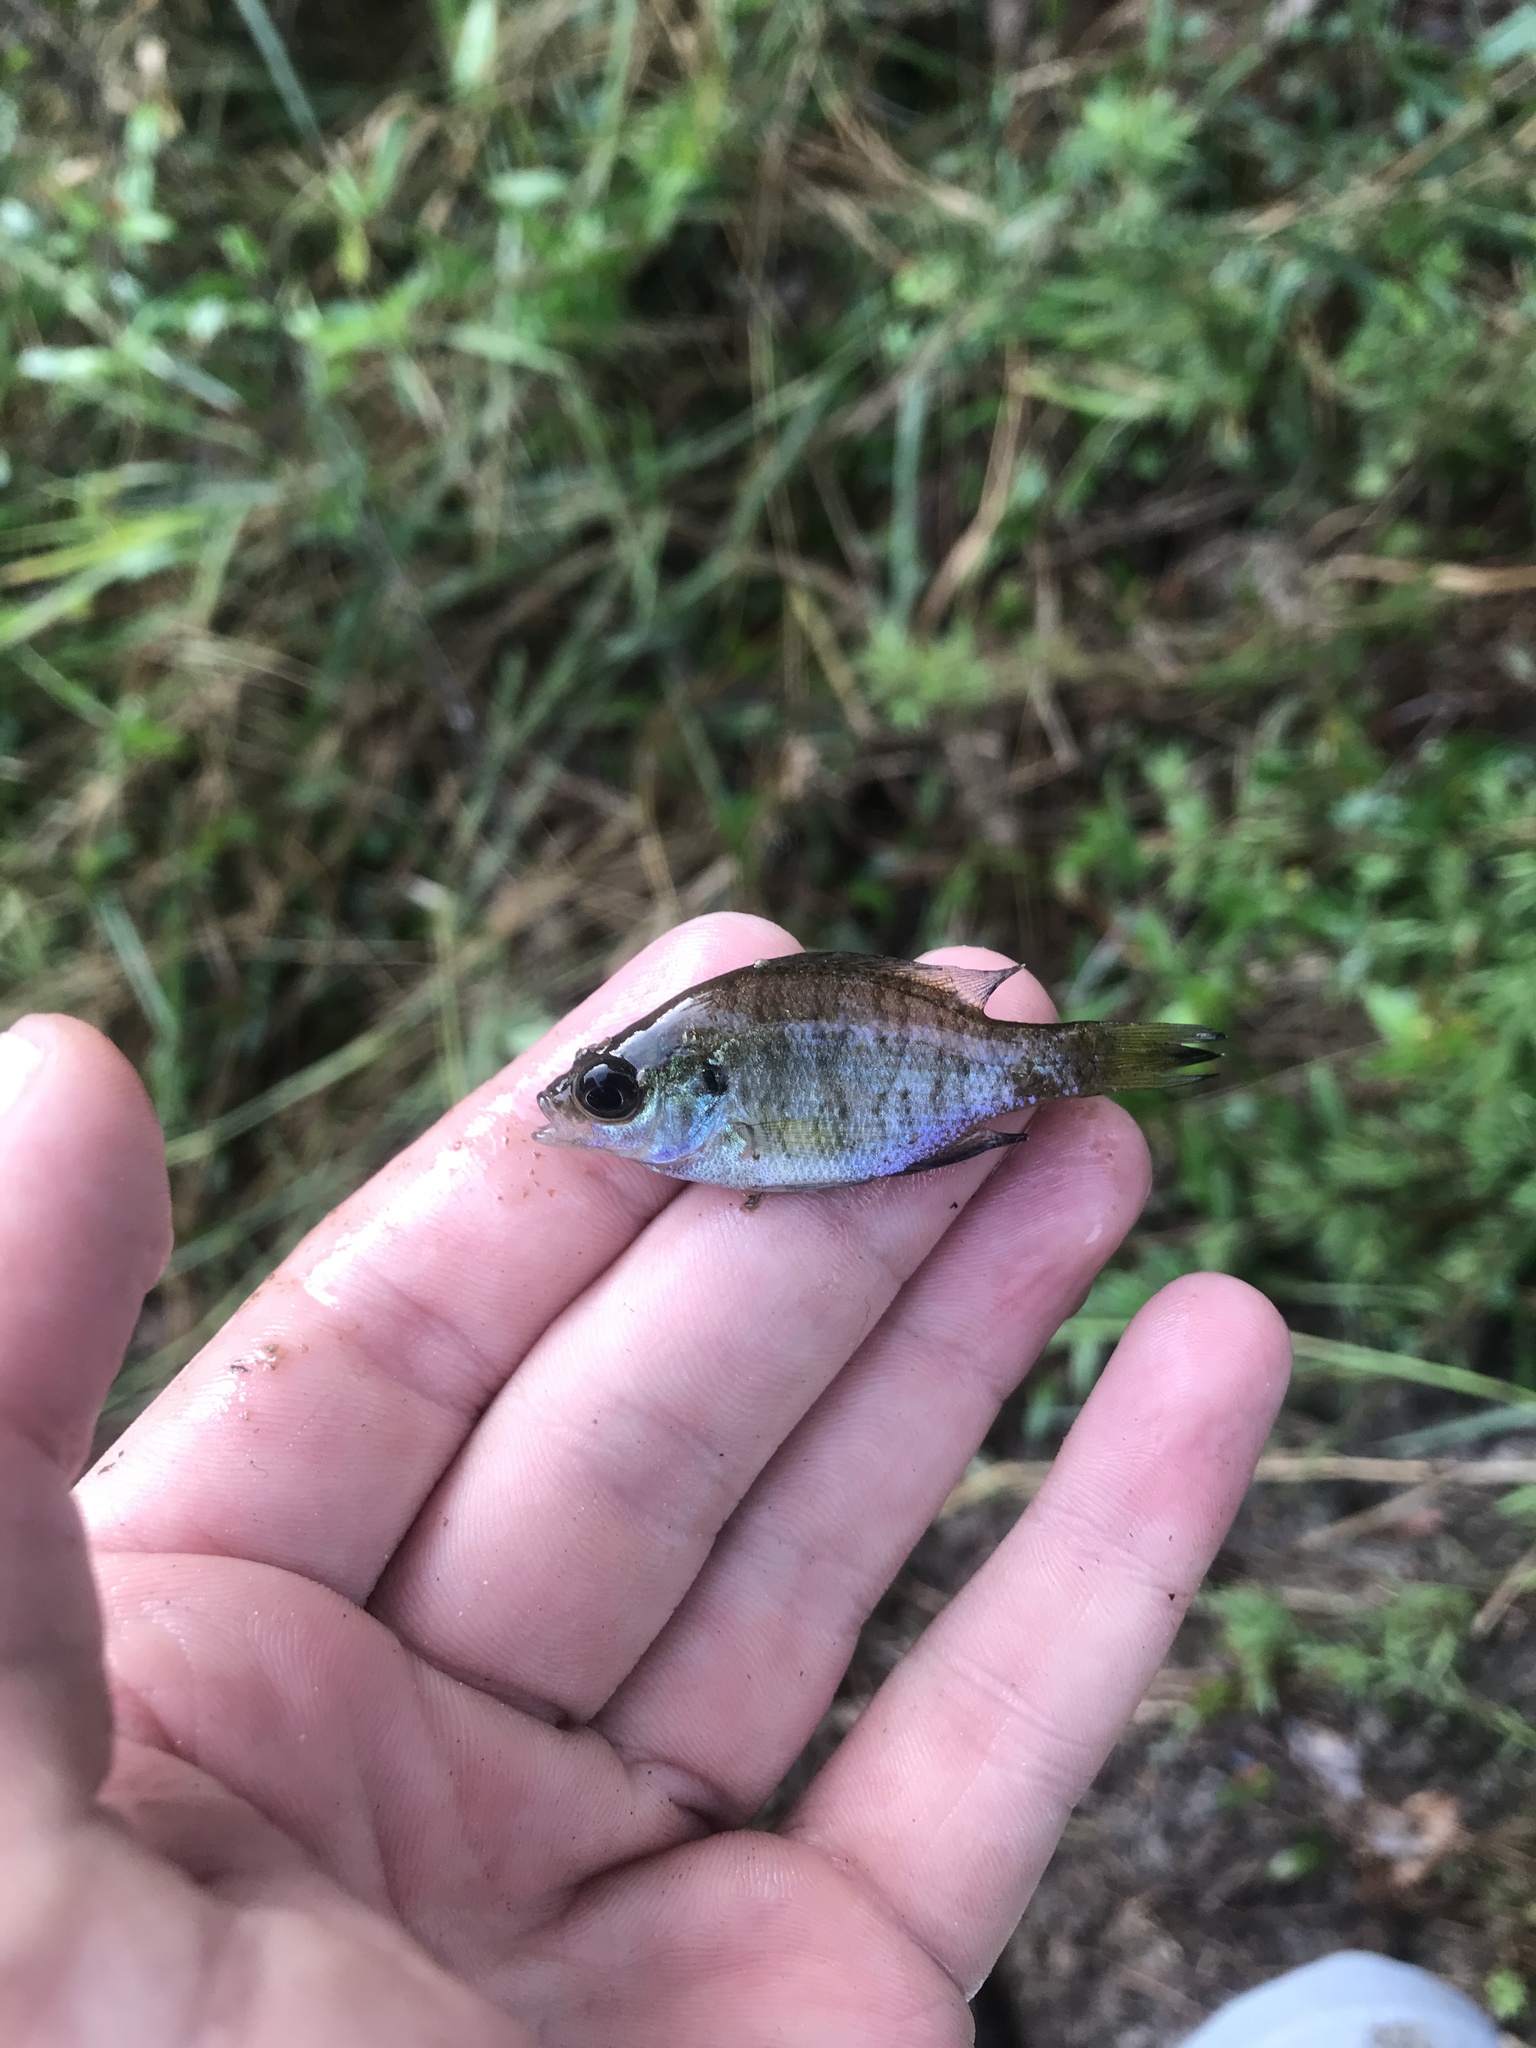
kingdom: Animalia
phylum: Chordata
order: Perciformes
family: Centrarchidae
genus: Lepomis
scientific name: Lepomis macrochirus
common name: Bluegill
